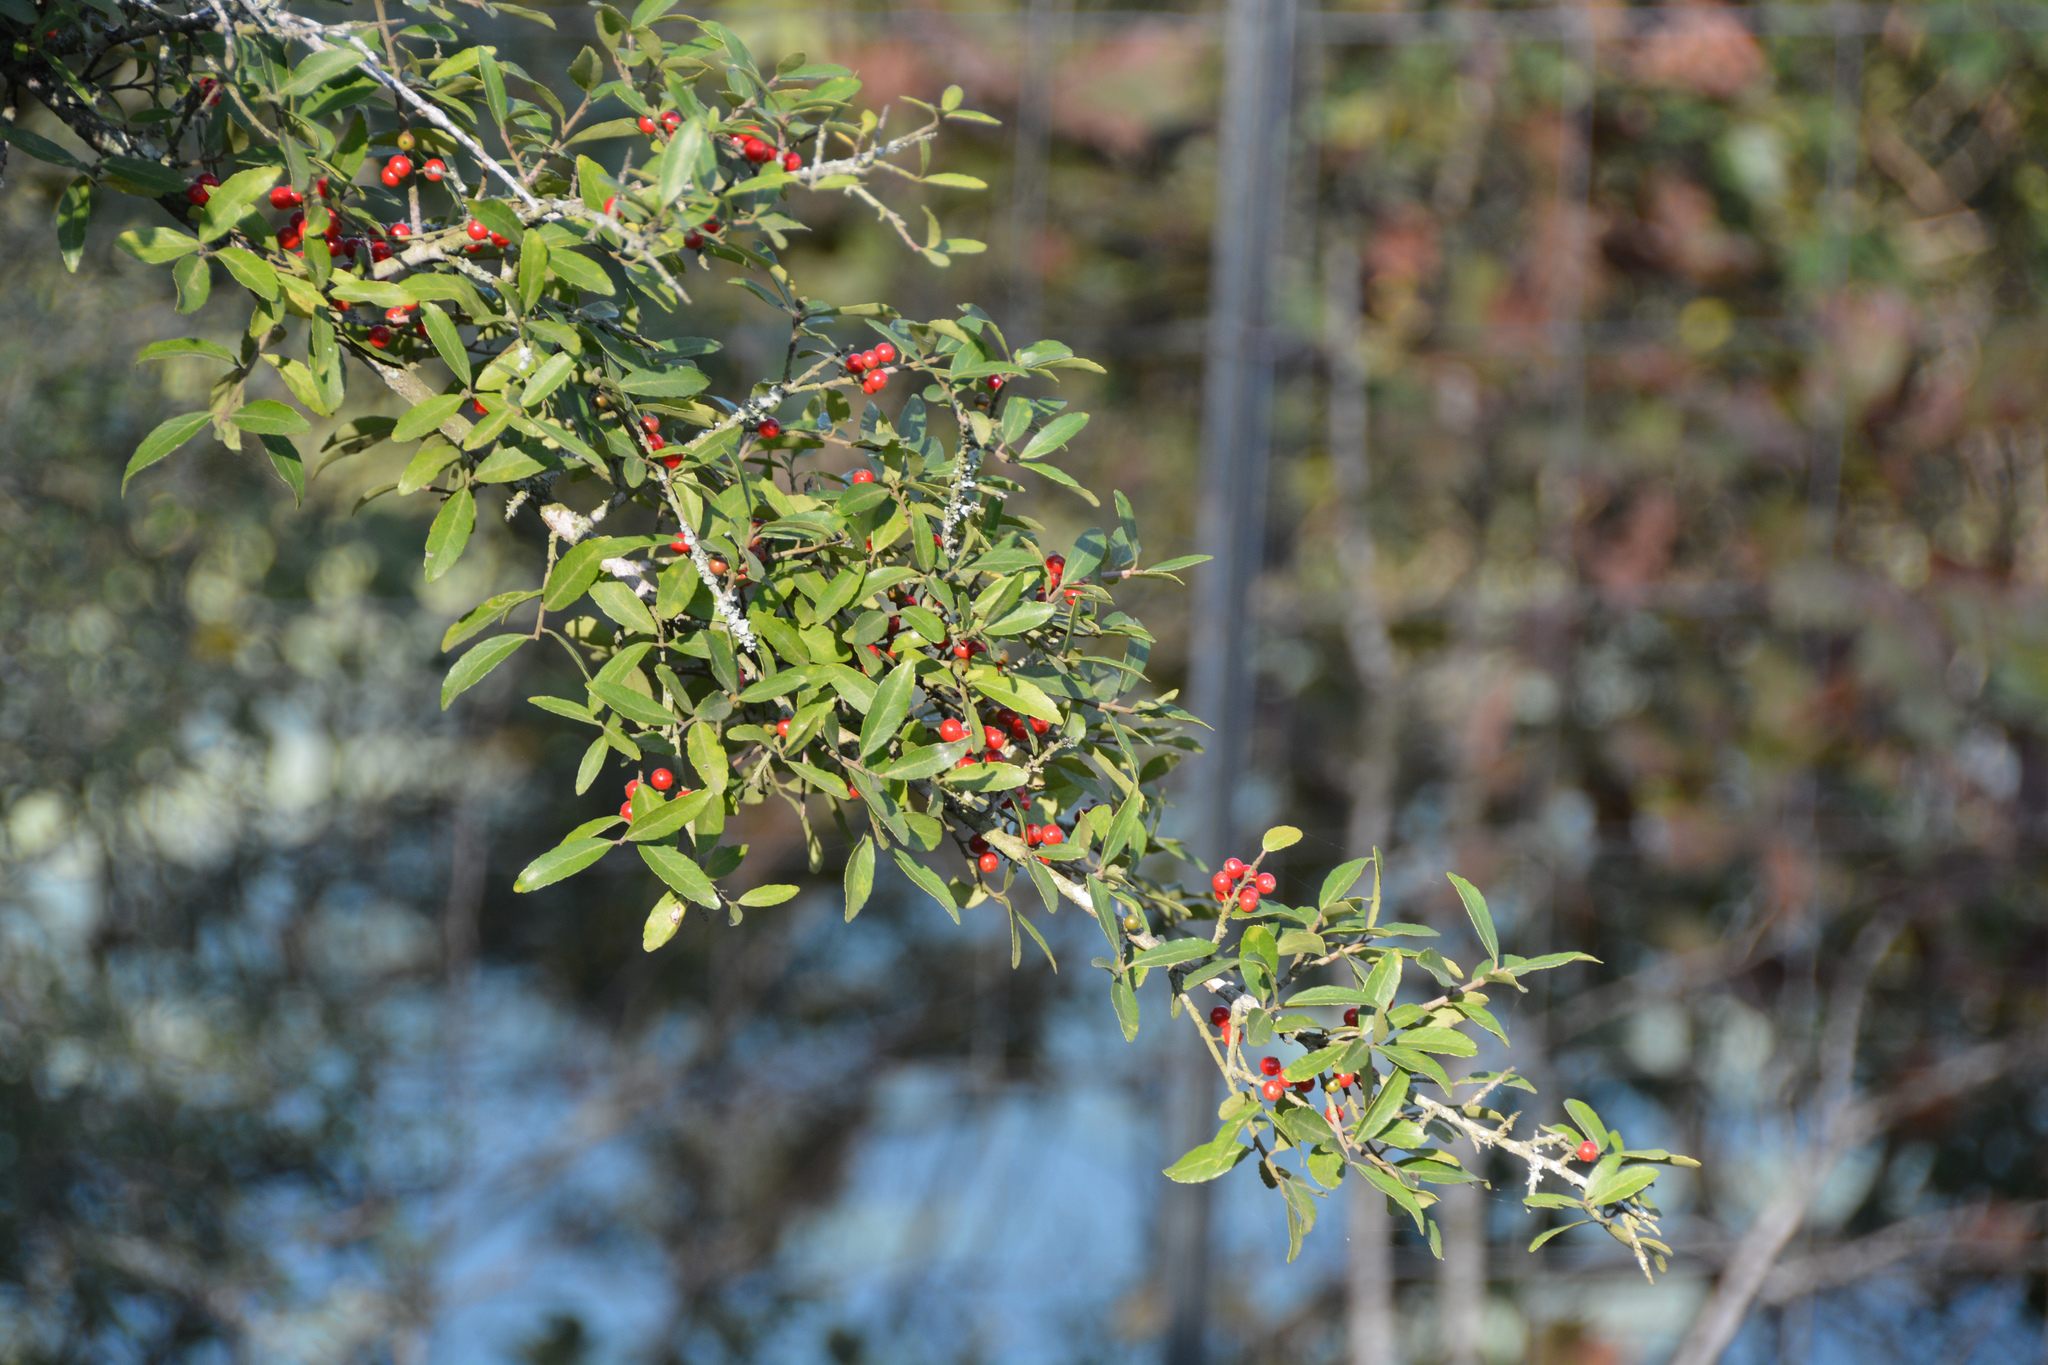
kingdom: Plantae
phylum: Tracheophyta
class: Magnoliopsida
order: Aquifoliales
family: Aquifoliaceae
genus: Ilex
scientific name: Ilex vomitoria
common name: Yaupon holly
